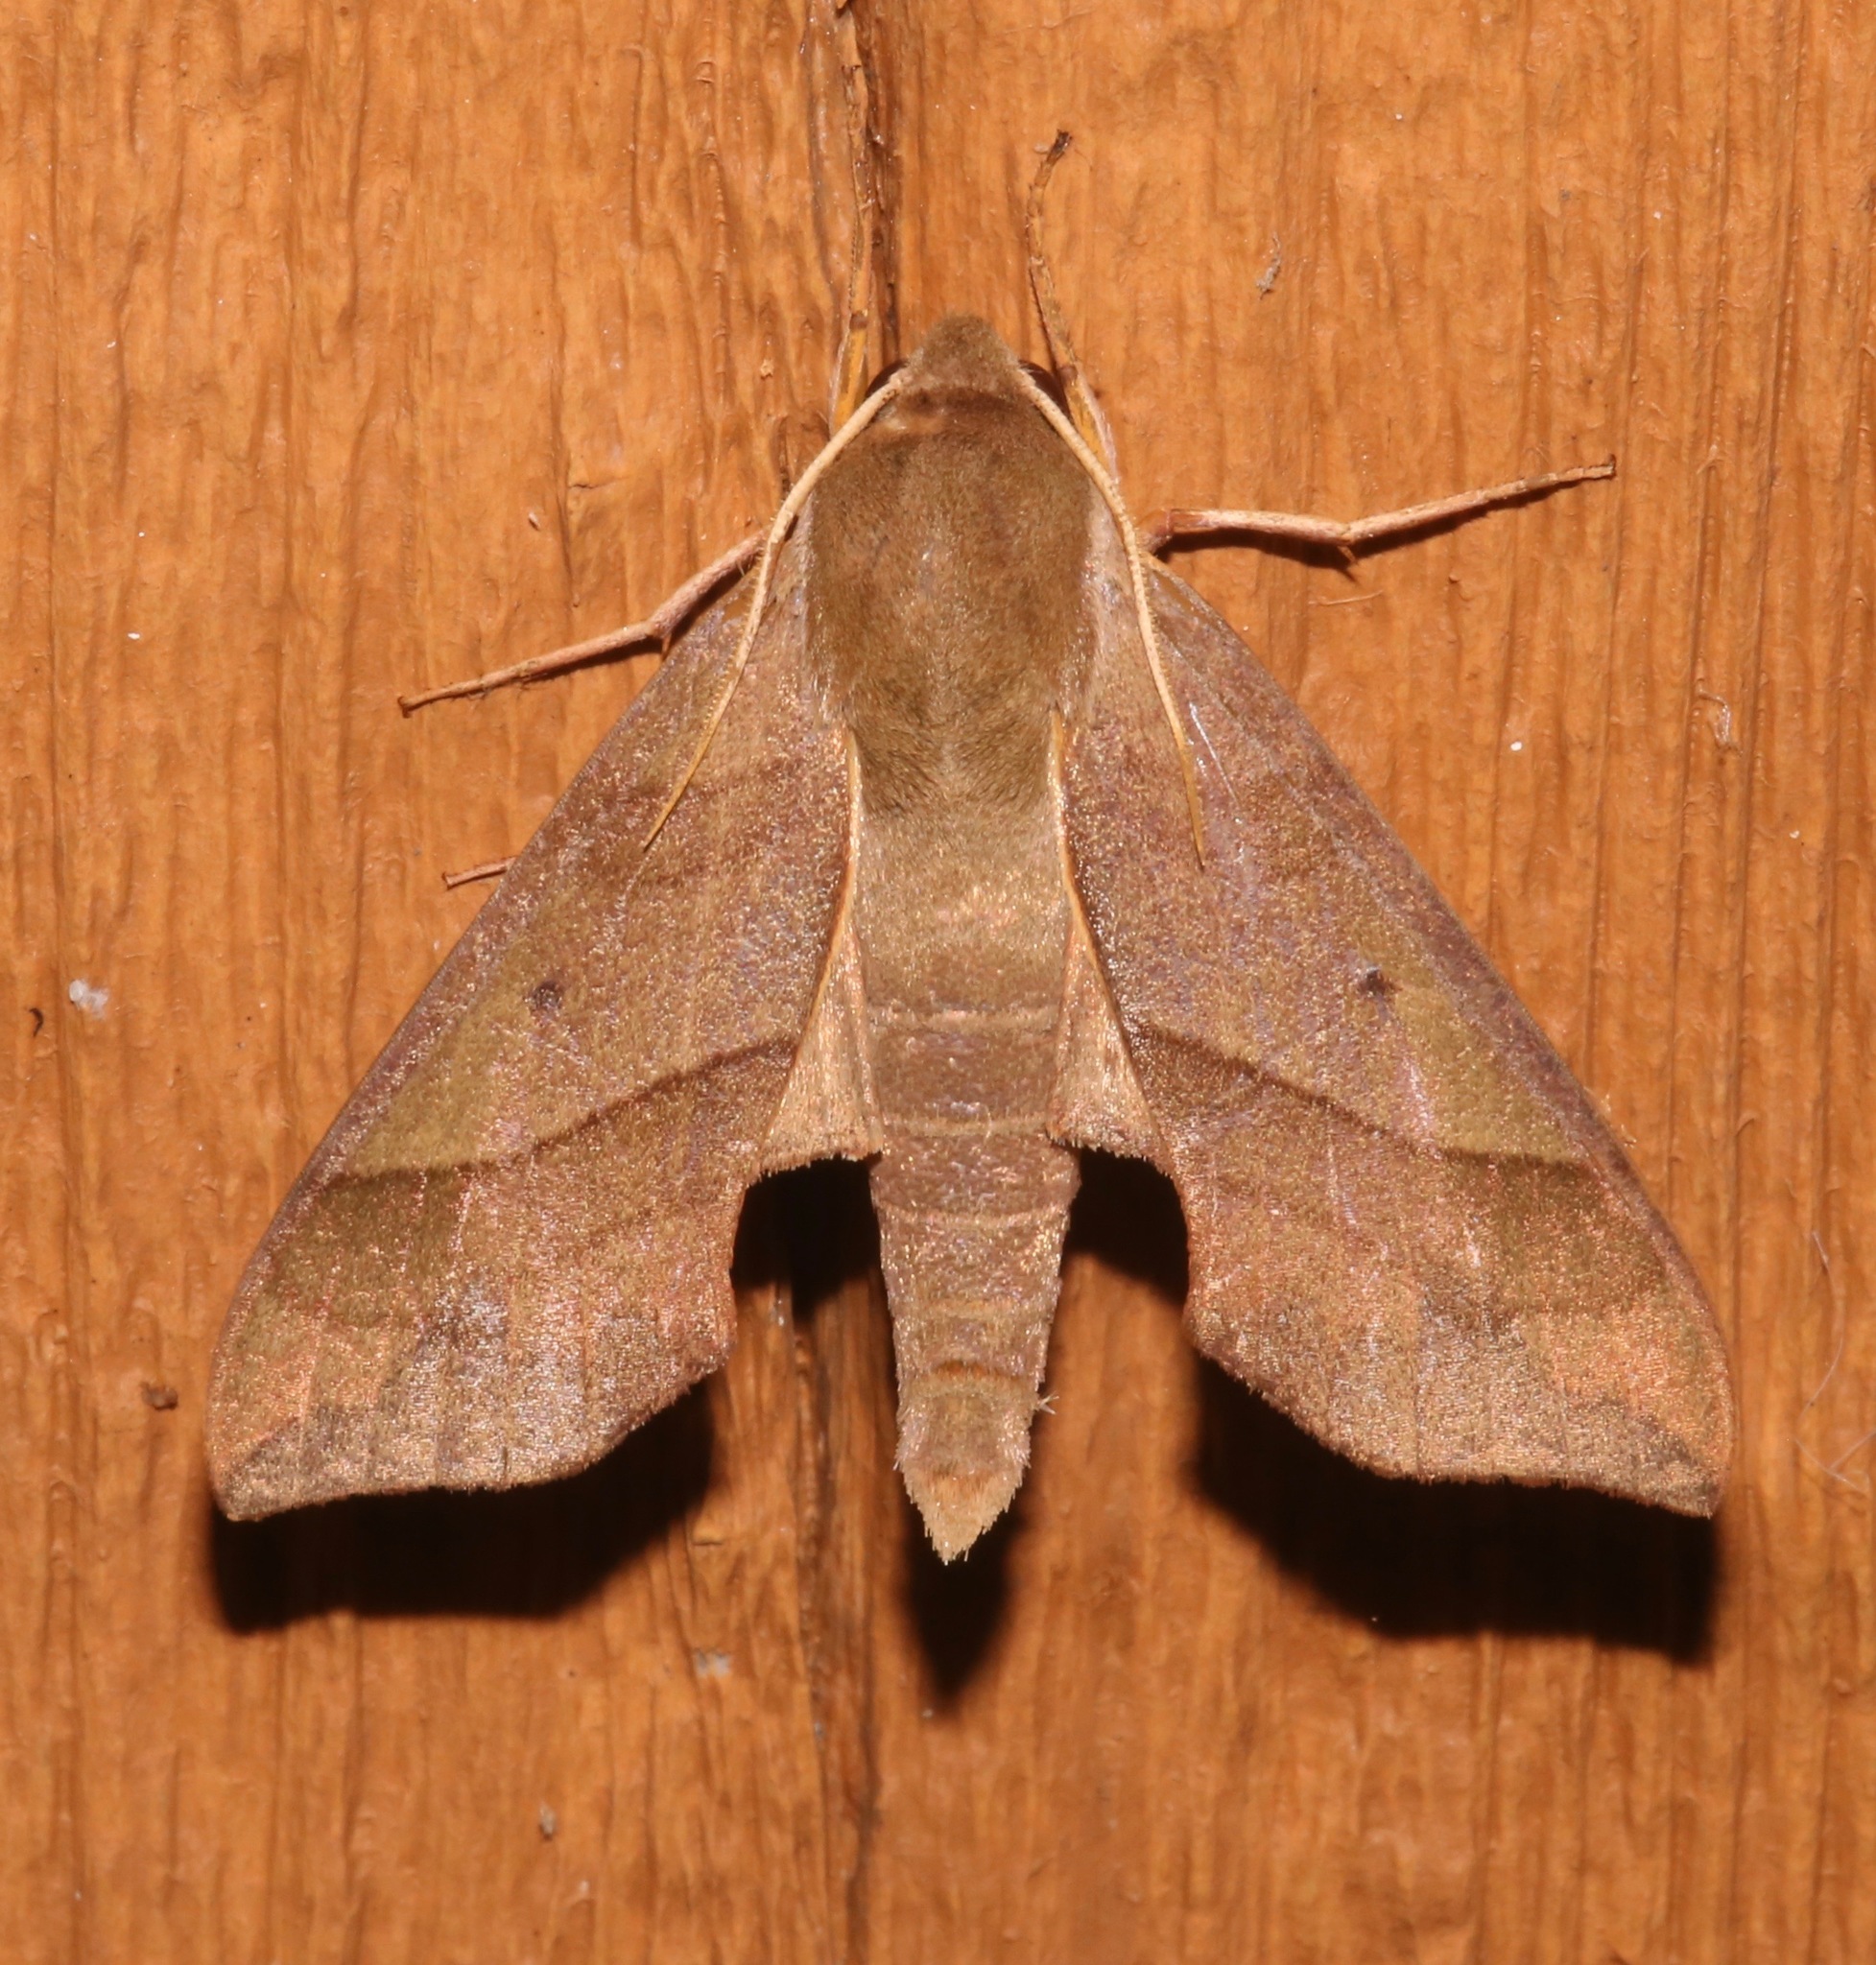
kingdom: Animalia
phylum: Arthropoda
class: Insecta
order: Lepidoptera
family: Sphingidae
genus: Darapsa
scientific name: Darapsa myron
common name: Hog sphinx
